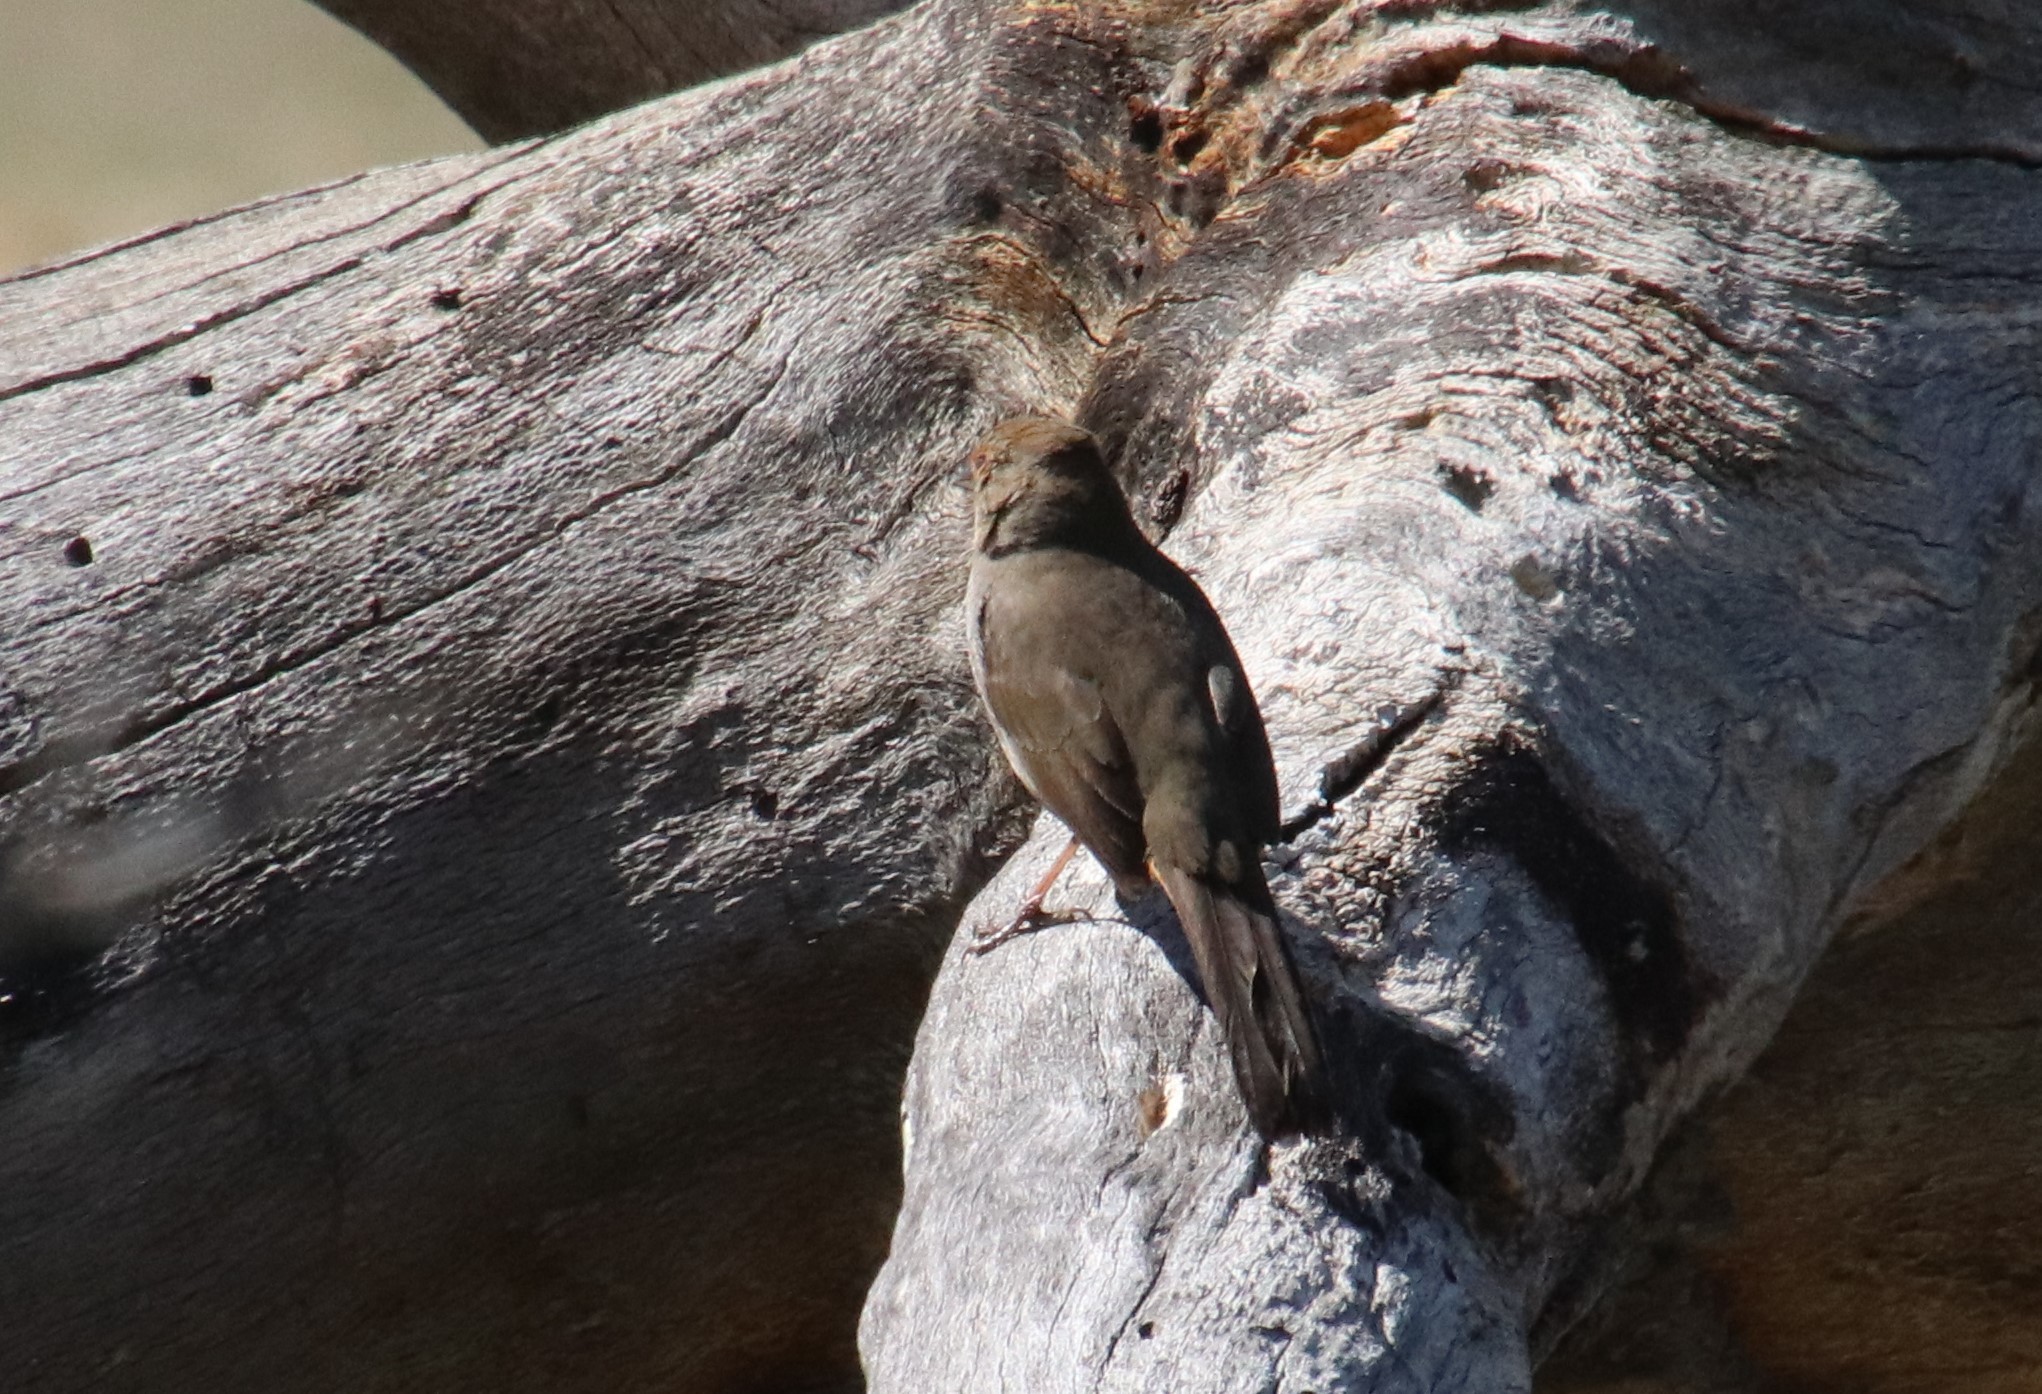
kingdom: Animalia
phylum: Chordata
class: Aves
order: Passeriformes
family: Passerellidae
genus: Melozone
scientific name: Melozone crissalis
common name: California towhee
